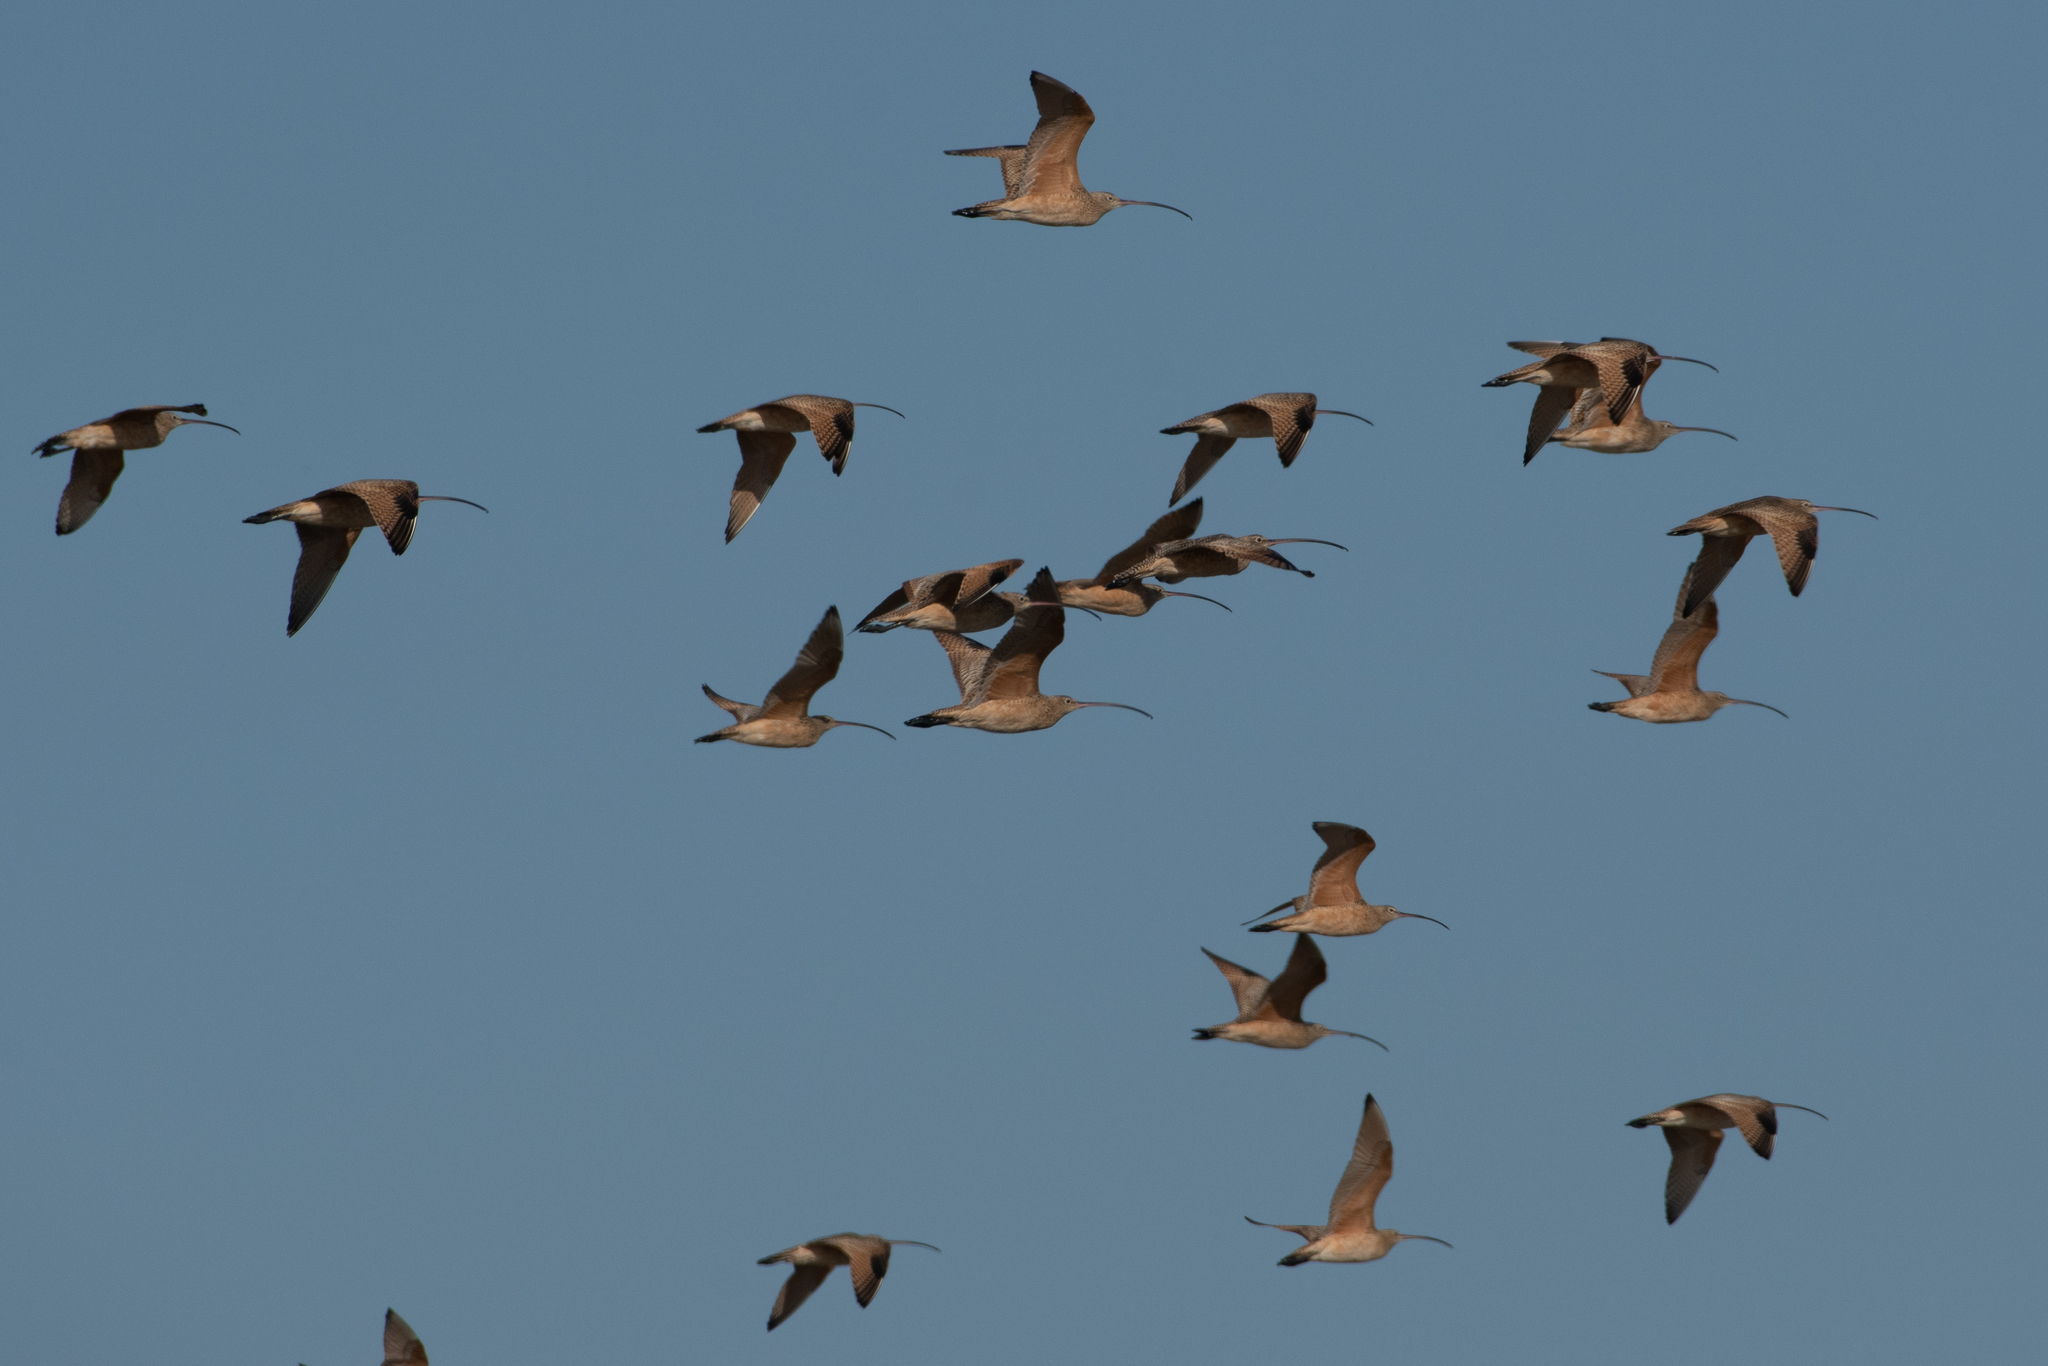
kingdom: Animalia
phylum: Chordata
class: Aves
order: Charadriiformes
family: Scolopacidae
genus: Numenius
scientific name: Numenius americanus
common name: Long-billed curlew
